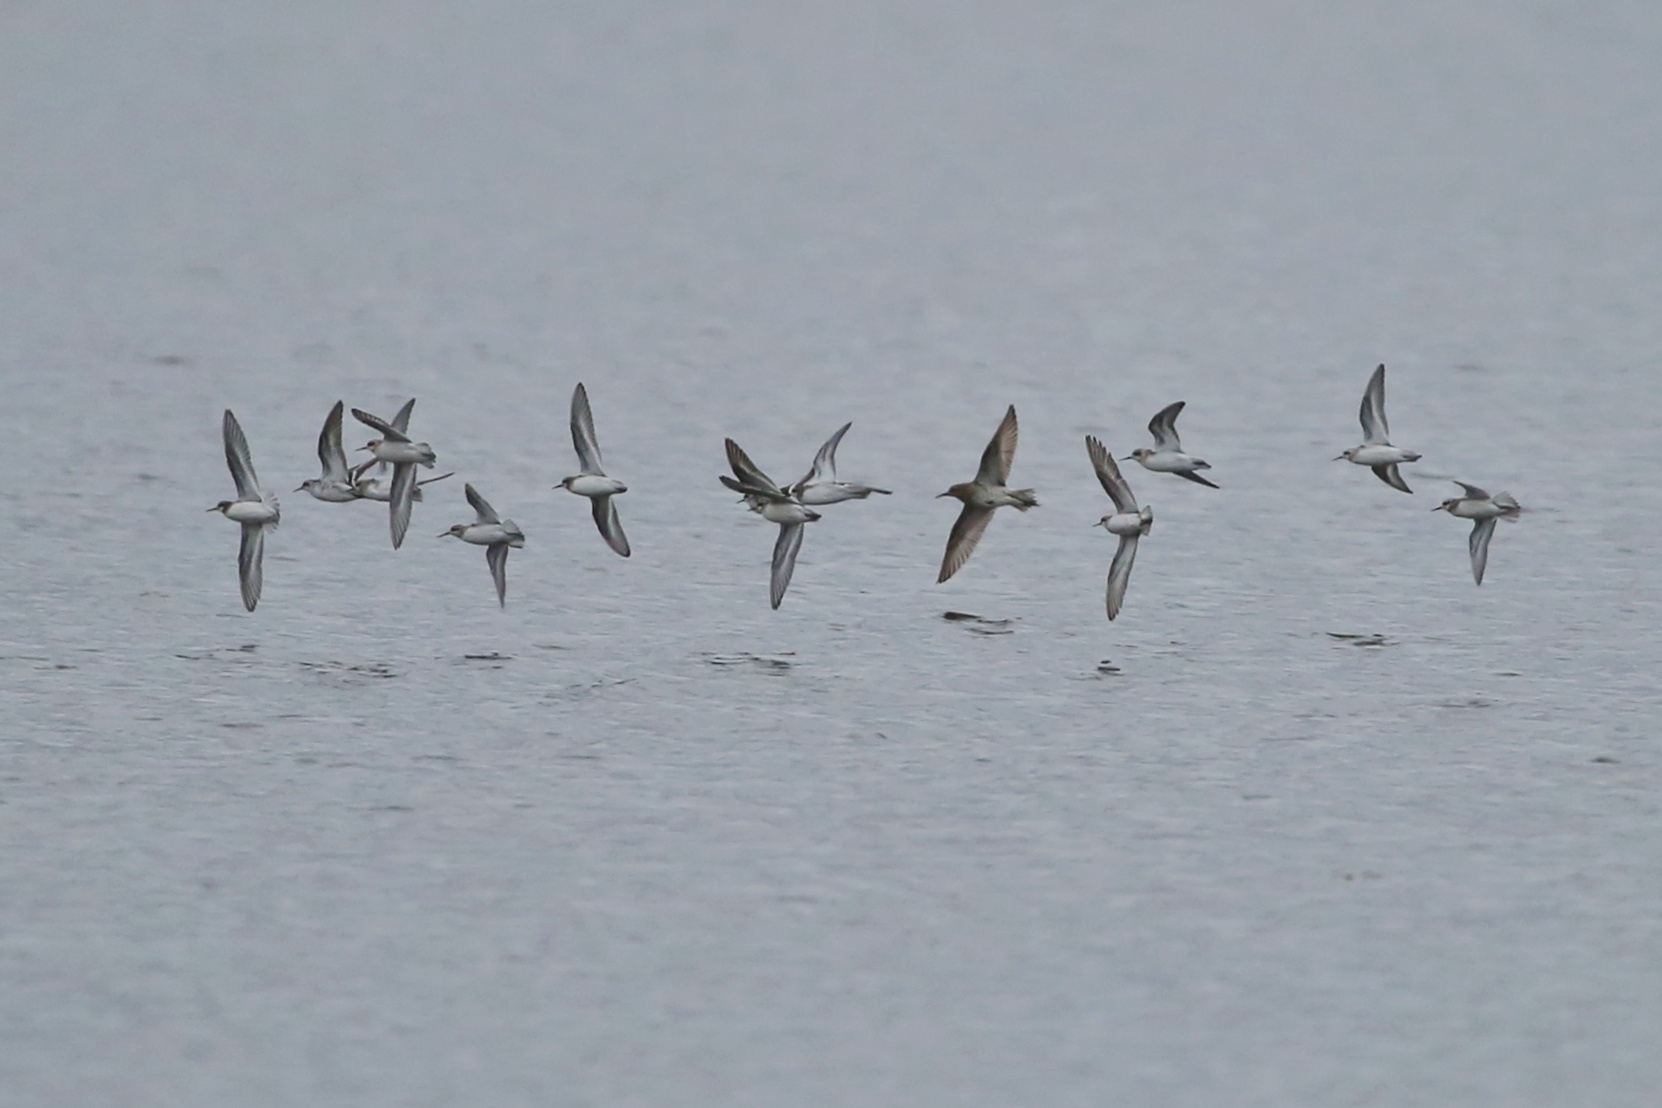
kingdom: Animalia
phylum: Chordata
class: Aves
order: Charadriiformes
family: Scolopacidae
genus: Phalaropus
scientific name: Phalaropus lobatus
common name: Red-necked phalarope
